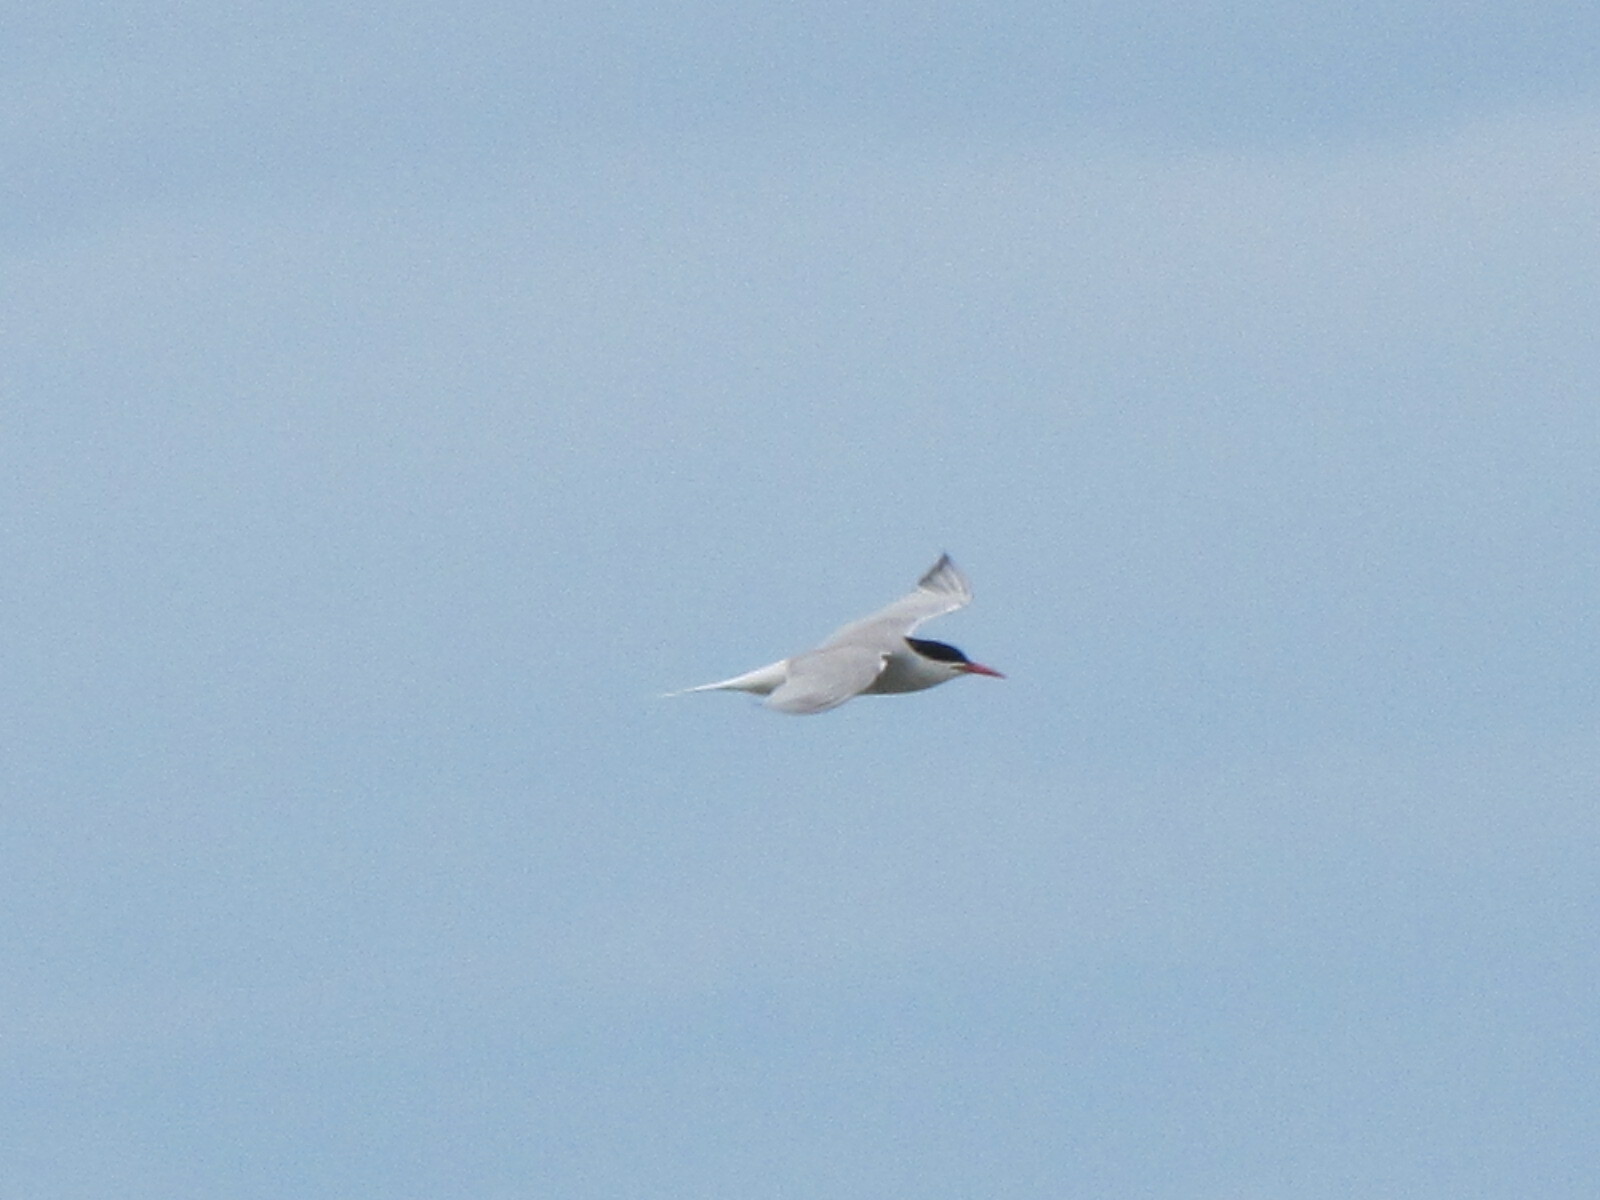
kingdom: Animalia
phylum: Chordata
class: Aves
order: Charadriiformes
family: Laridae
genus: Sterna
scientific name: Sterna hirundo
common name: Common tern
